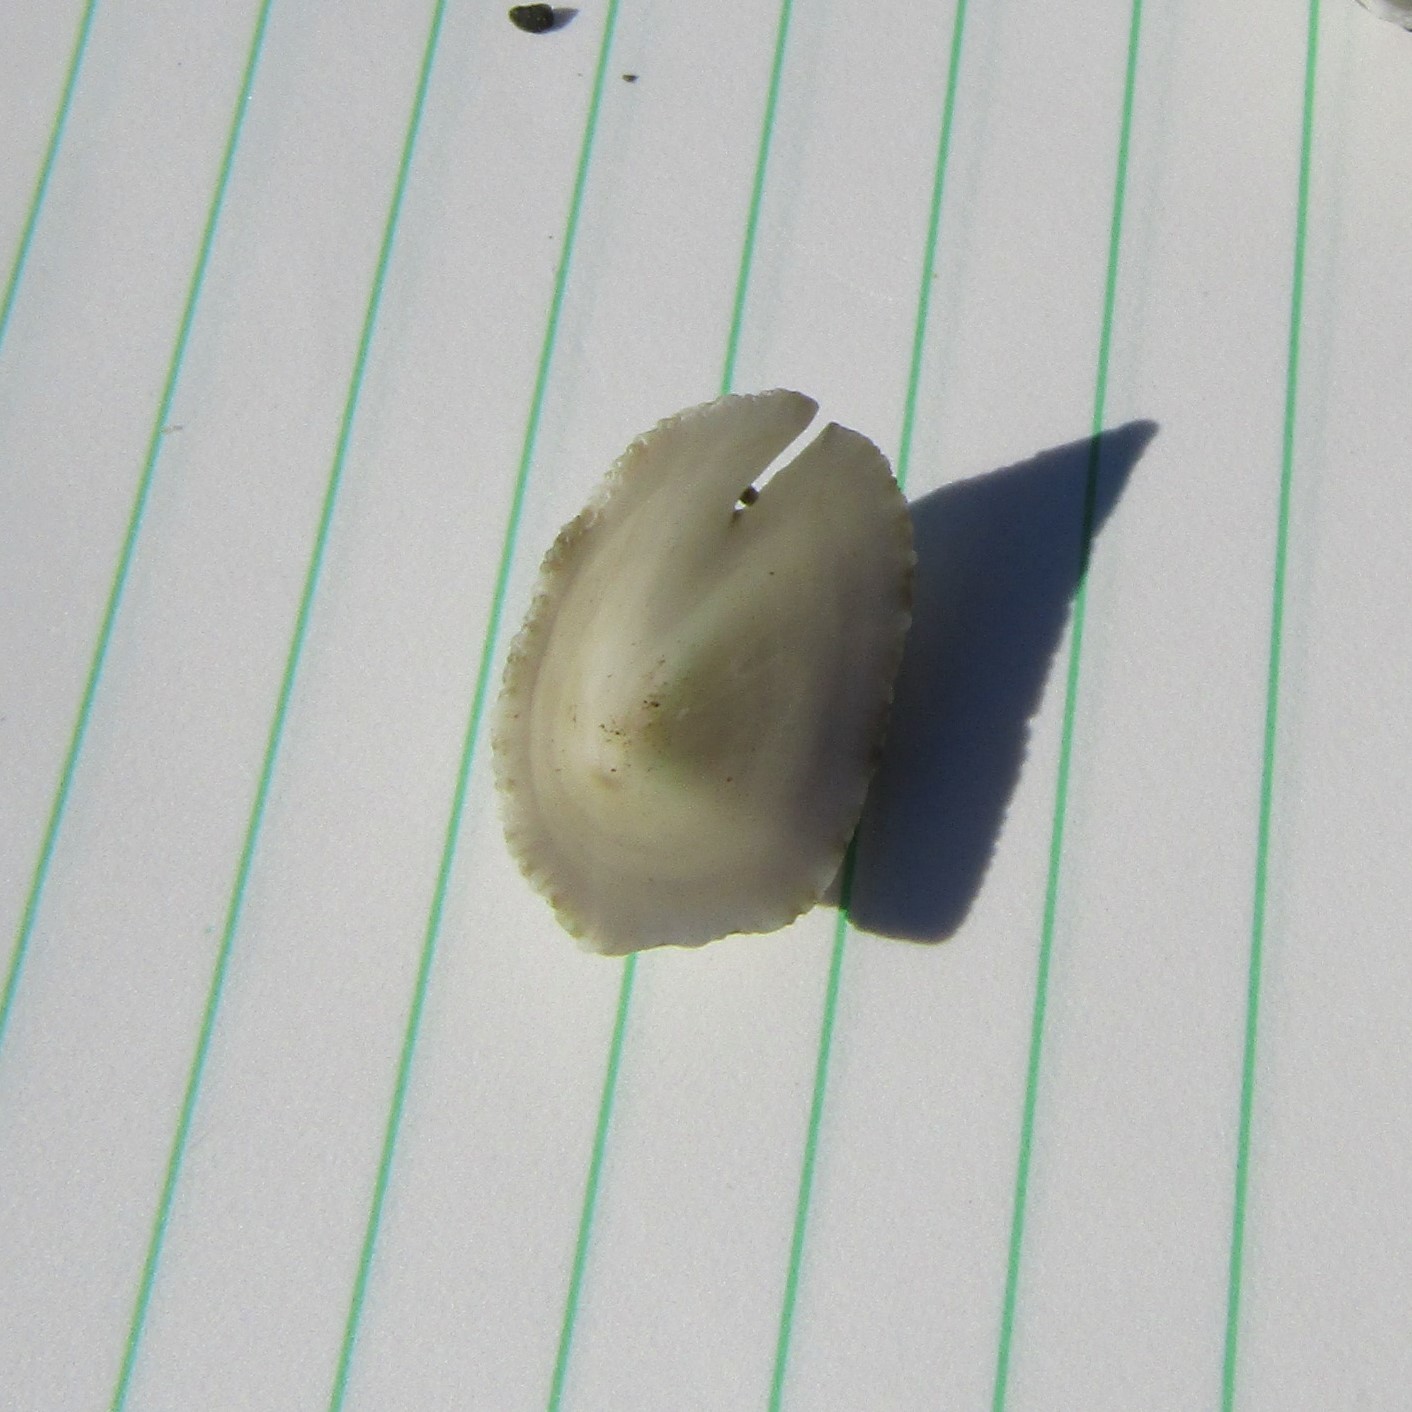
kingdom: Animalia
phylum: Mollusca
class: Gastropoda
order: Lepetellida
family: Fissurellidae
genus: Emarginula
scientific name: Emarginula striatula
